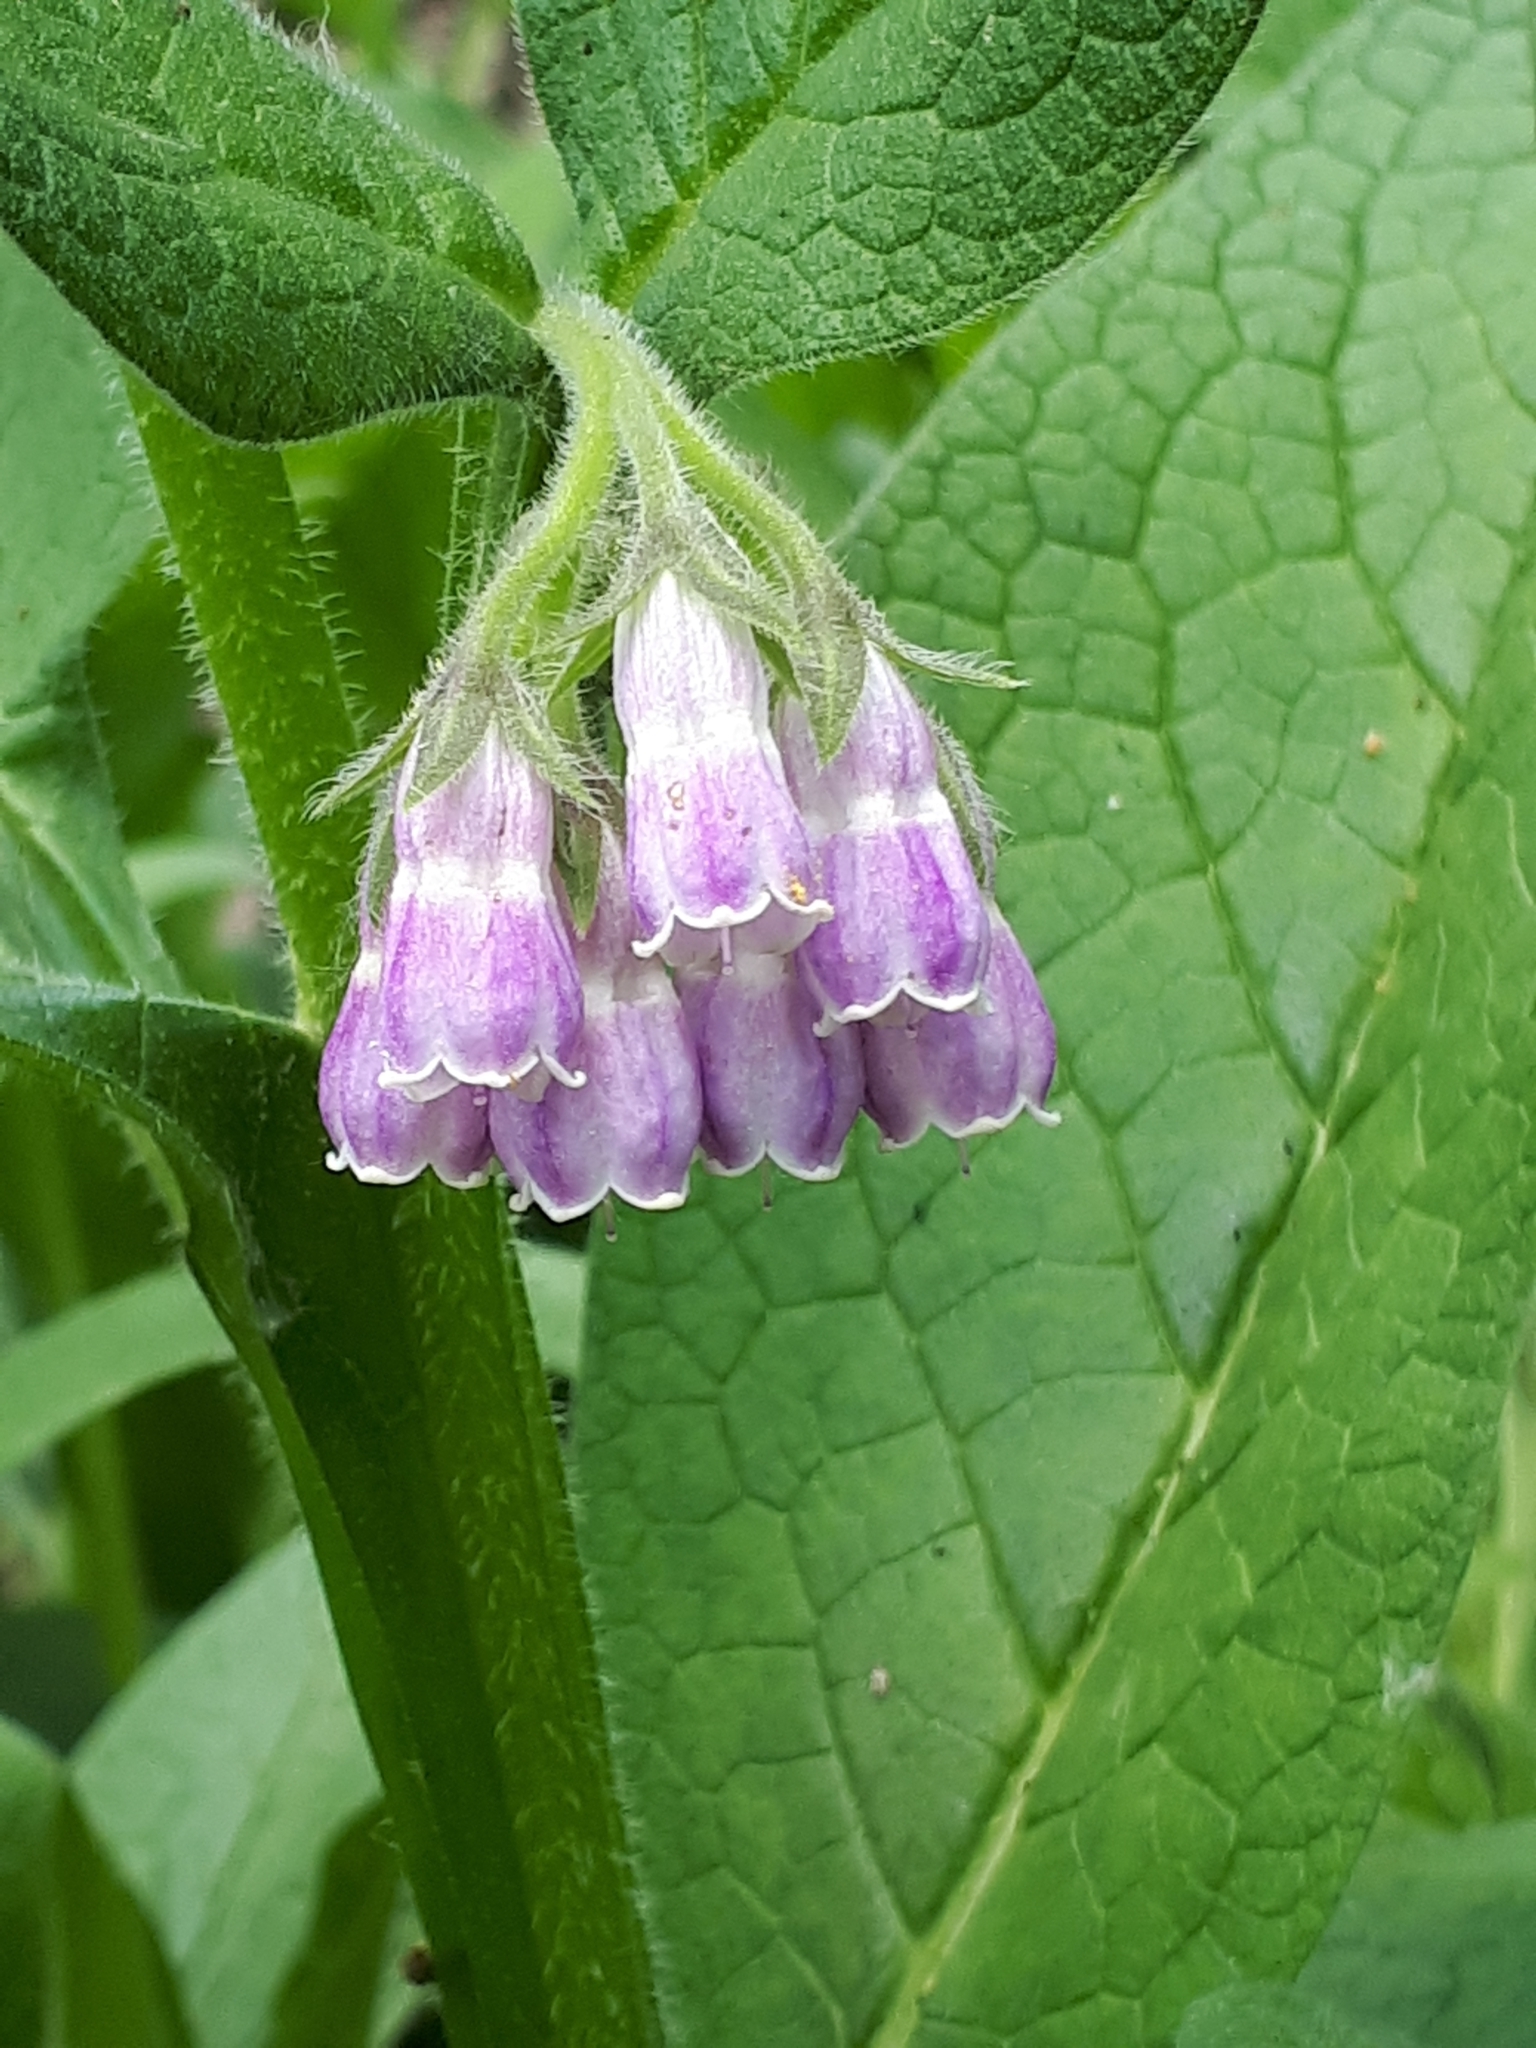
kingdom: Plantae
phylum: Tracheophyta
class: Magnoliopsida
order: Boraginales
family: Boraginaceae
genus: Symphytum
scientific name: Symphytum officinale
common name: Common comfrey
